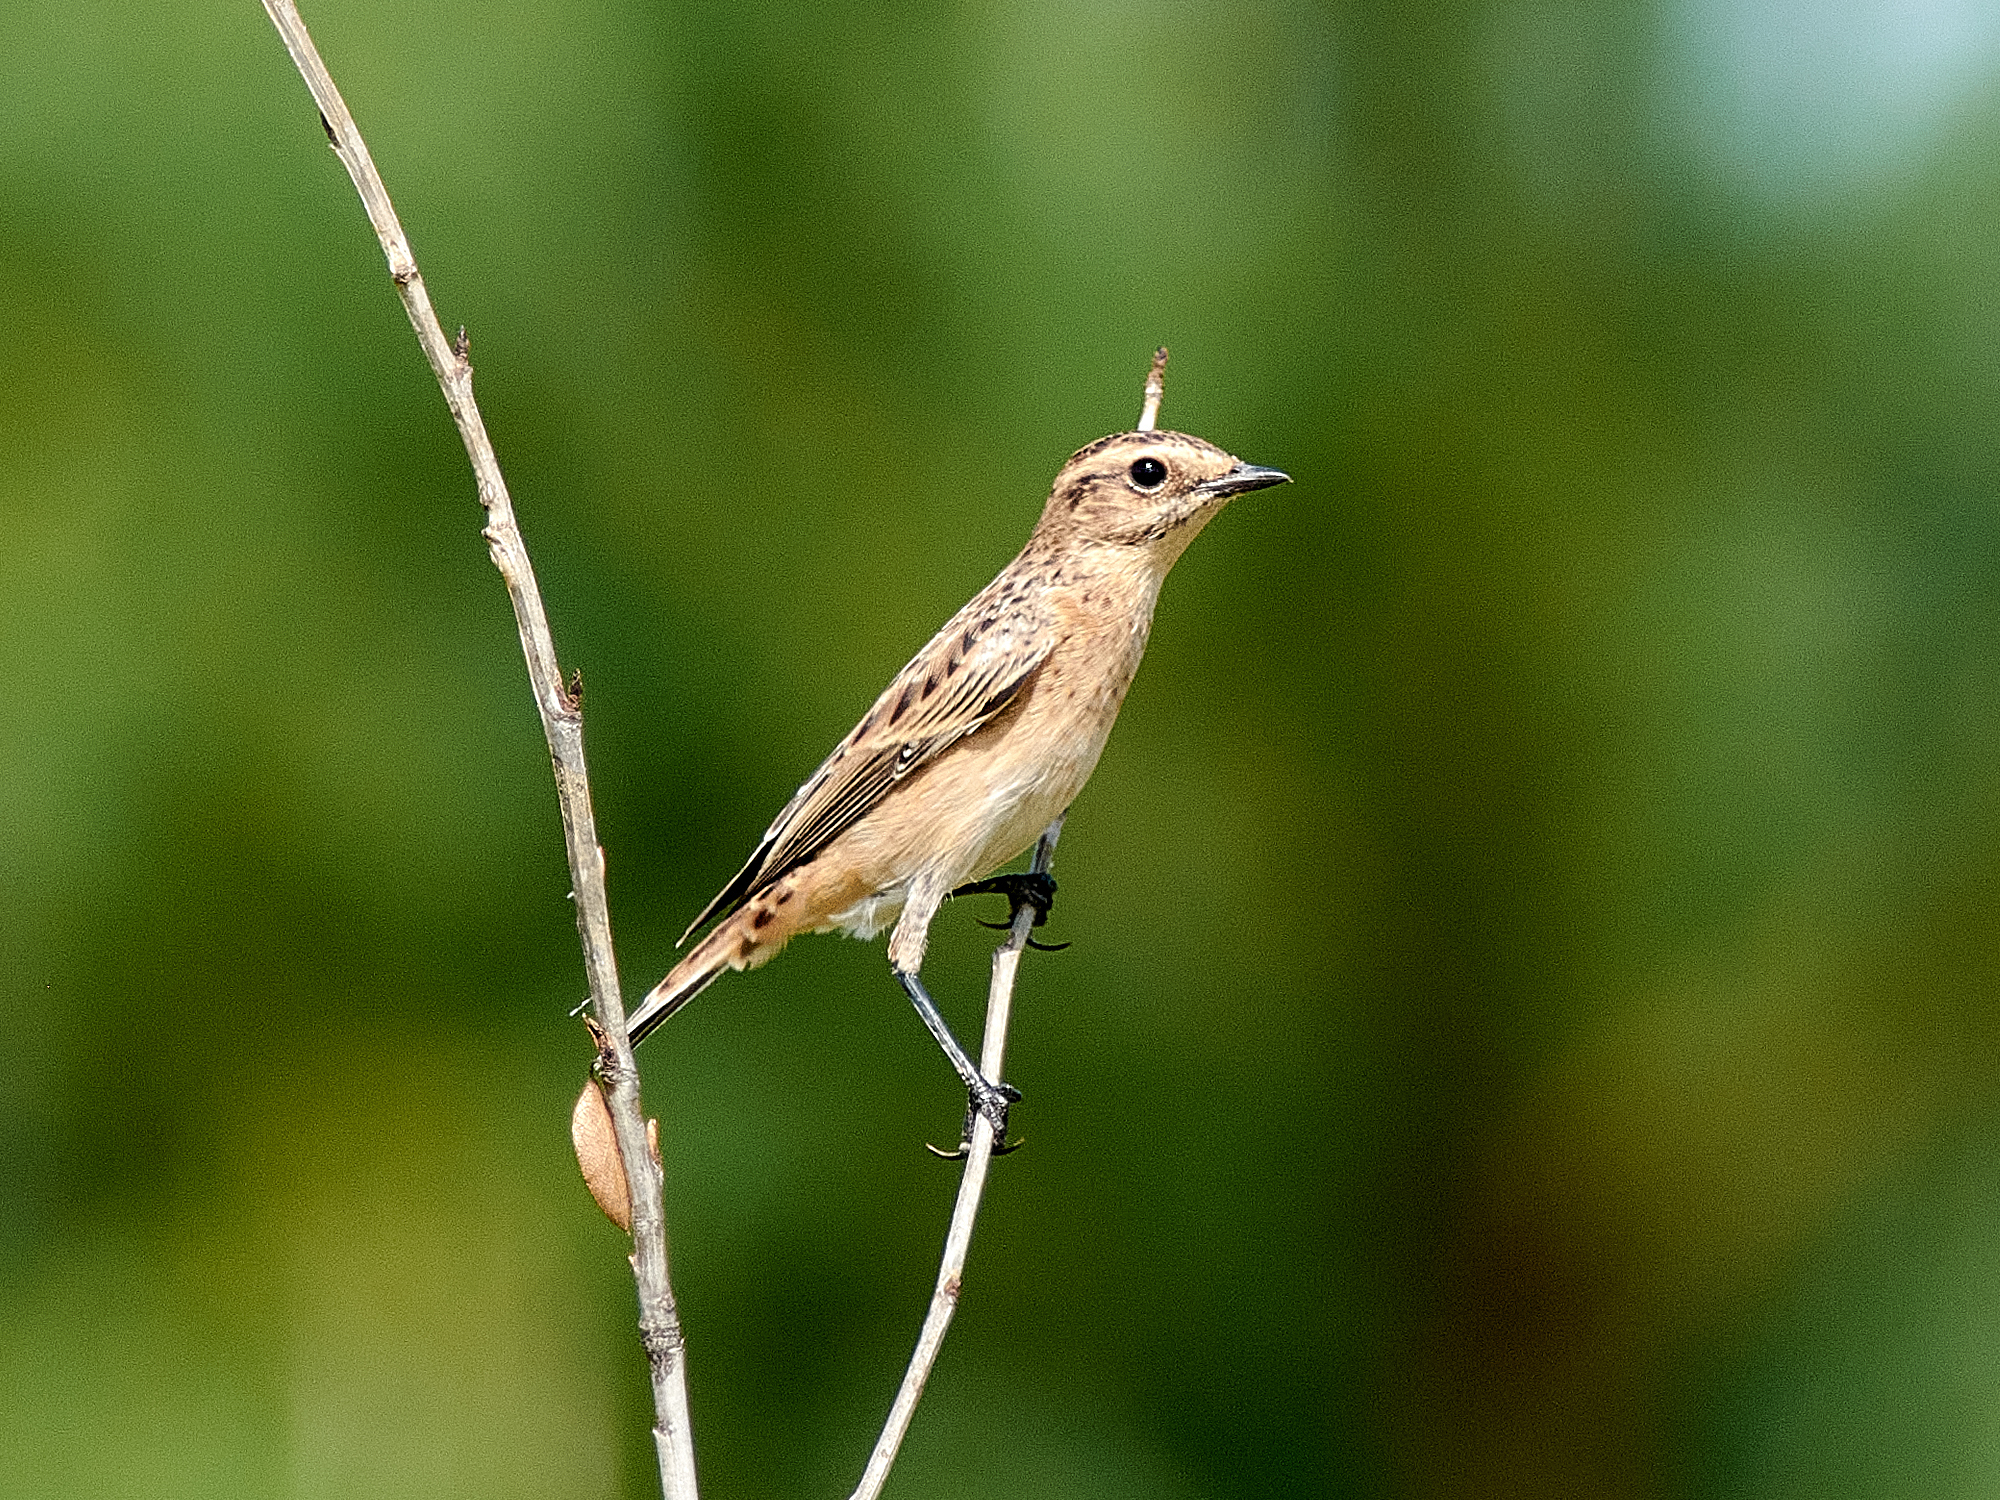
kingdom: Animalia
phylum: Chordata
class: Aves
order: Passeriformes
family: Muscicapidae
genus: Saxicola
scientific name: Saxicola rubetra
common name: Whinchat
